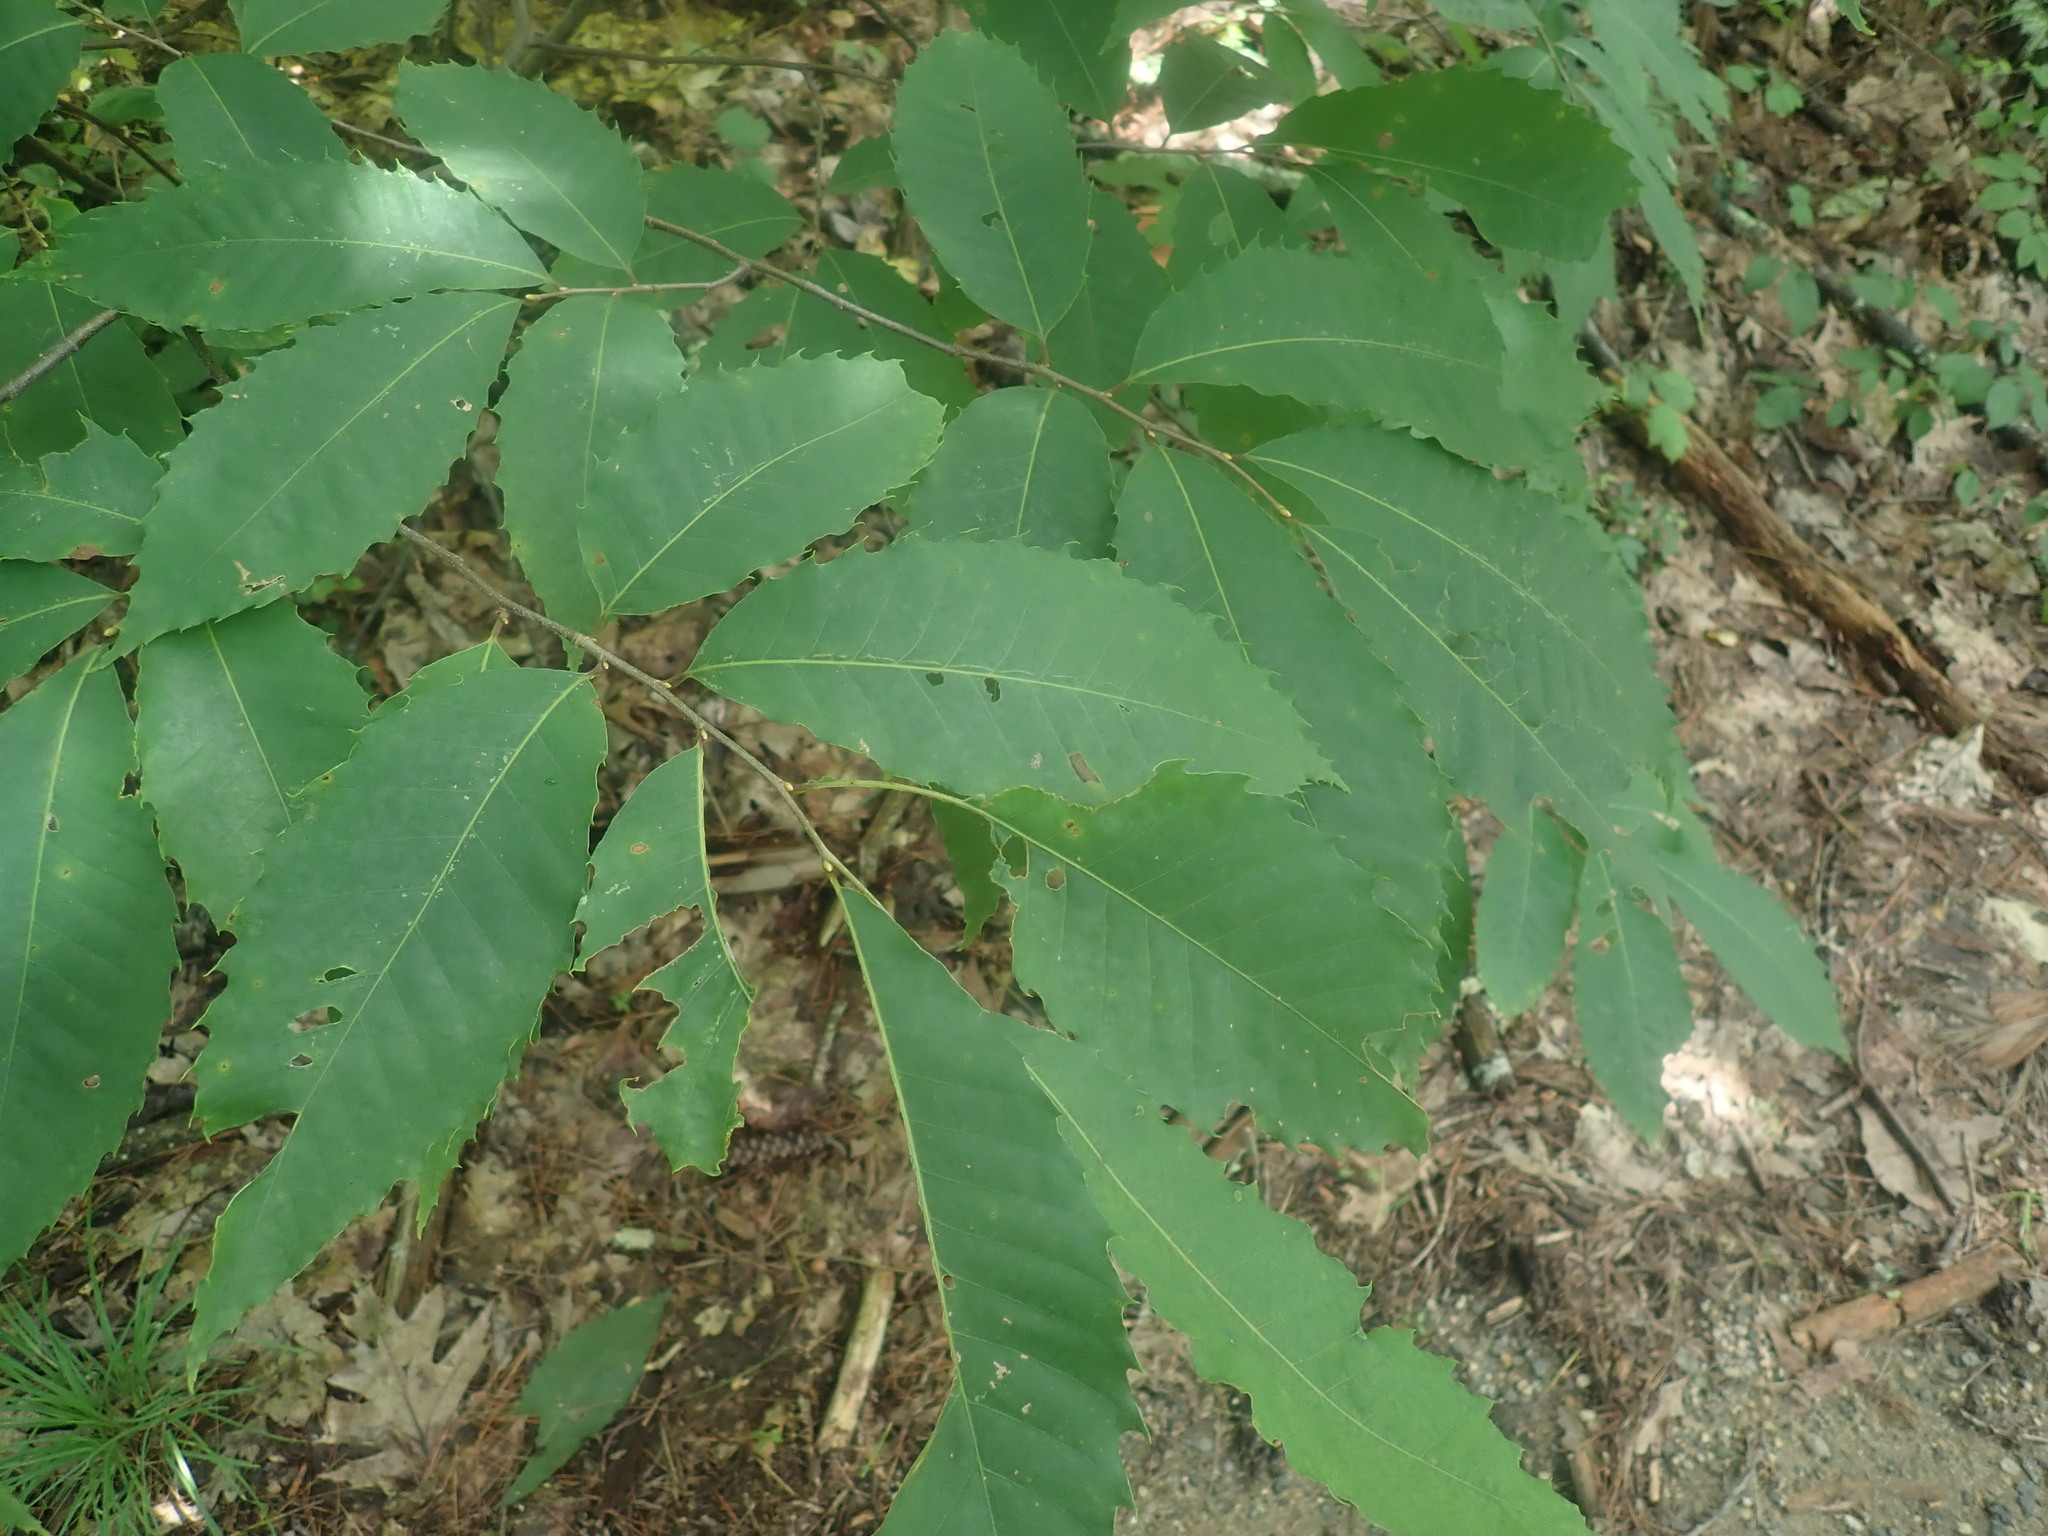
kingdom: Plantae
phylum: Tracheophyta
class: Magnoliopsida
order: Fagales
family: Fagaceae
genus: Castanea
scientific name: Castanea dentata
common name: American chestnut
